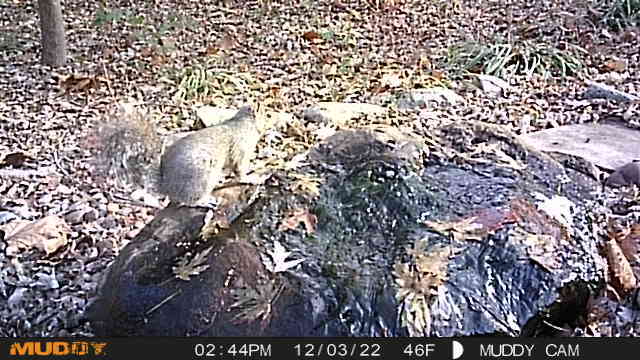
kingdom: Animalia
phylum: Chordata
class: Mammalia
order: Rodentia
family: Sciuridae
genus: Sciurus
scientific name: Sciurus carolinensis
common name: Eastern gray squirrel
